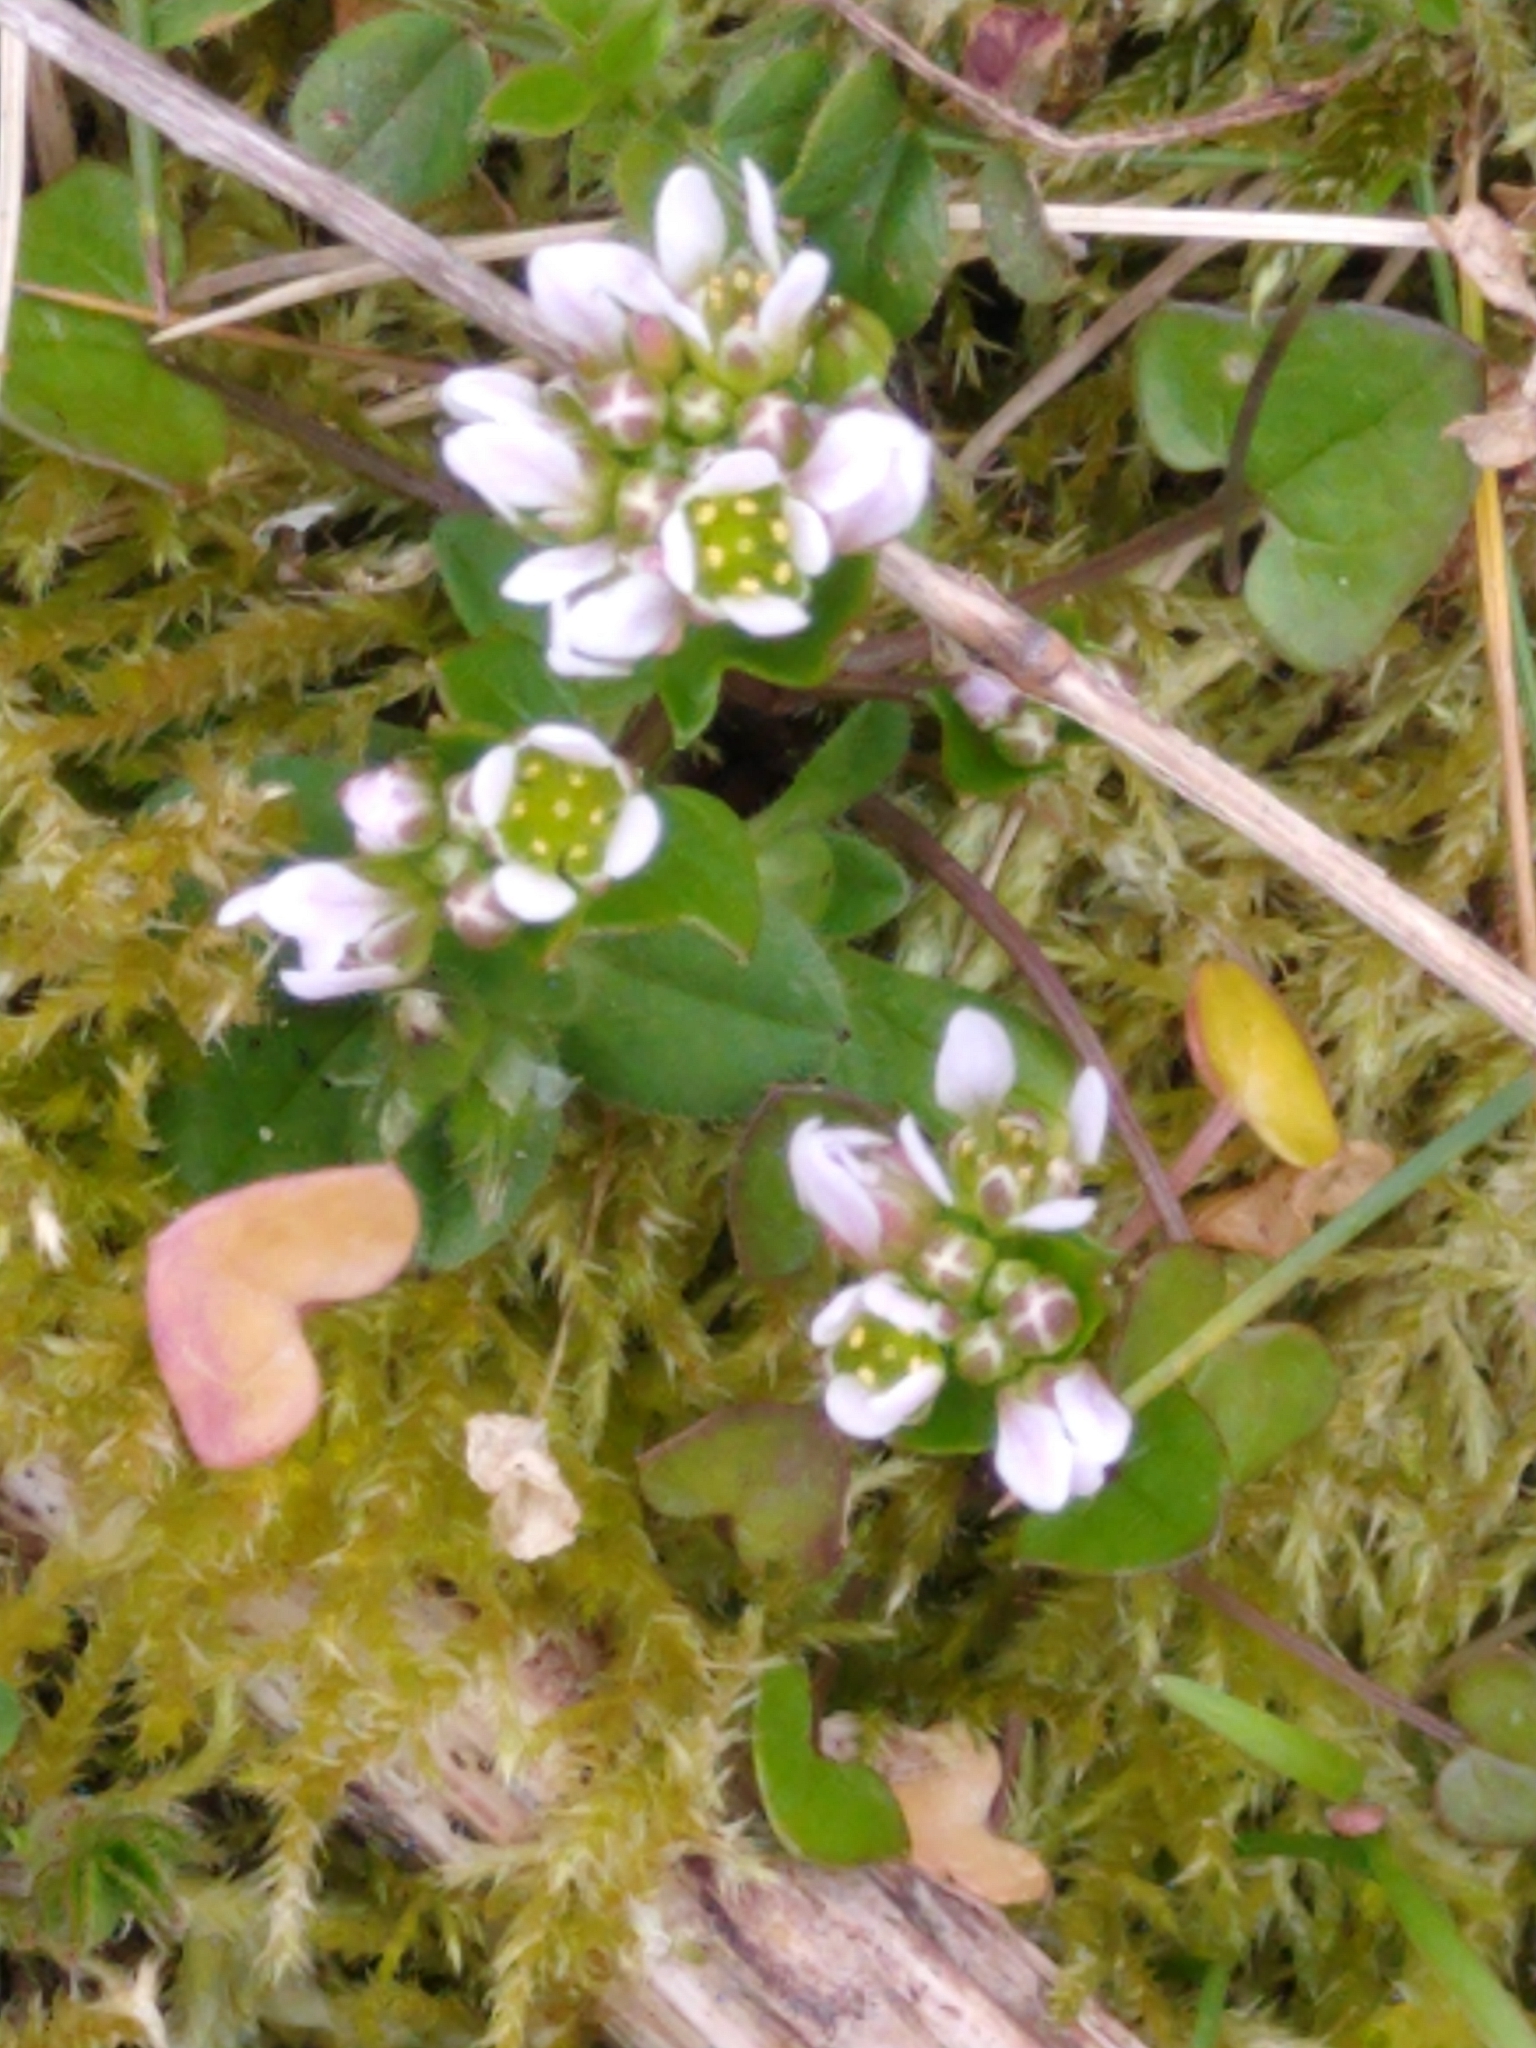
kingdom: Plantae
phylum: Tracheophyta
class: Magnoliopsida
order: Brassicales
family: Brassicaceae
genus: Cochlearia
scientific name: Cochlearia danica
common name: Early scurvygrass
